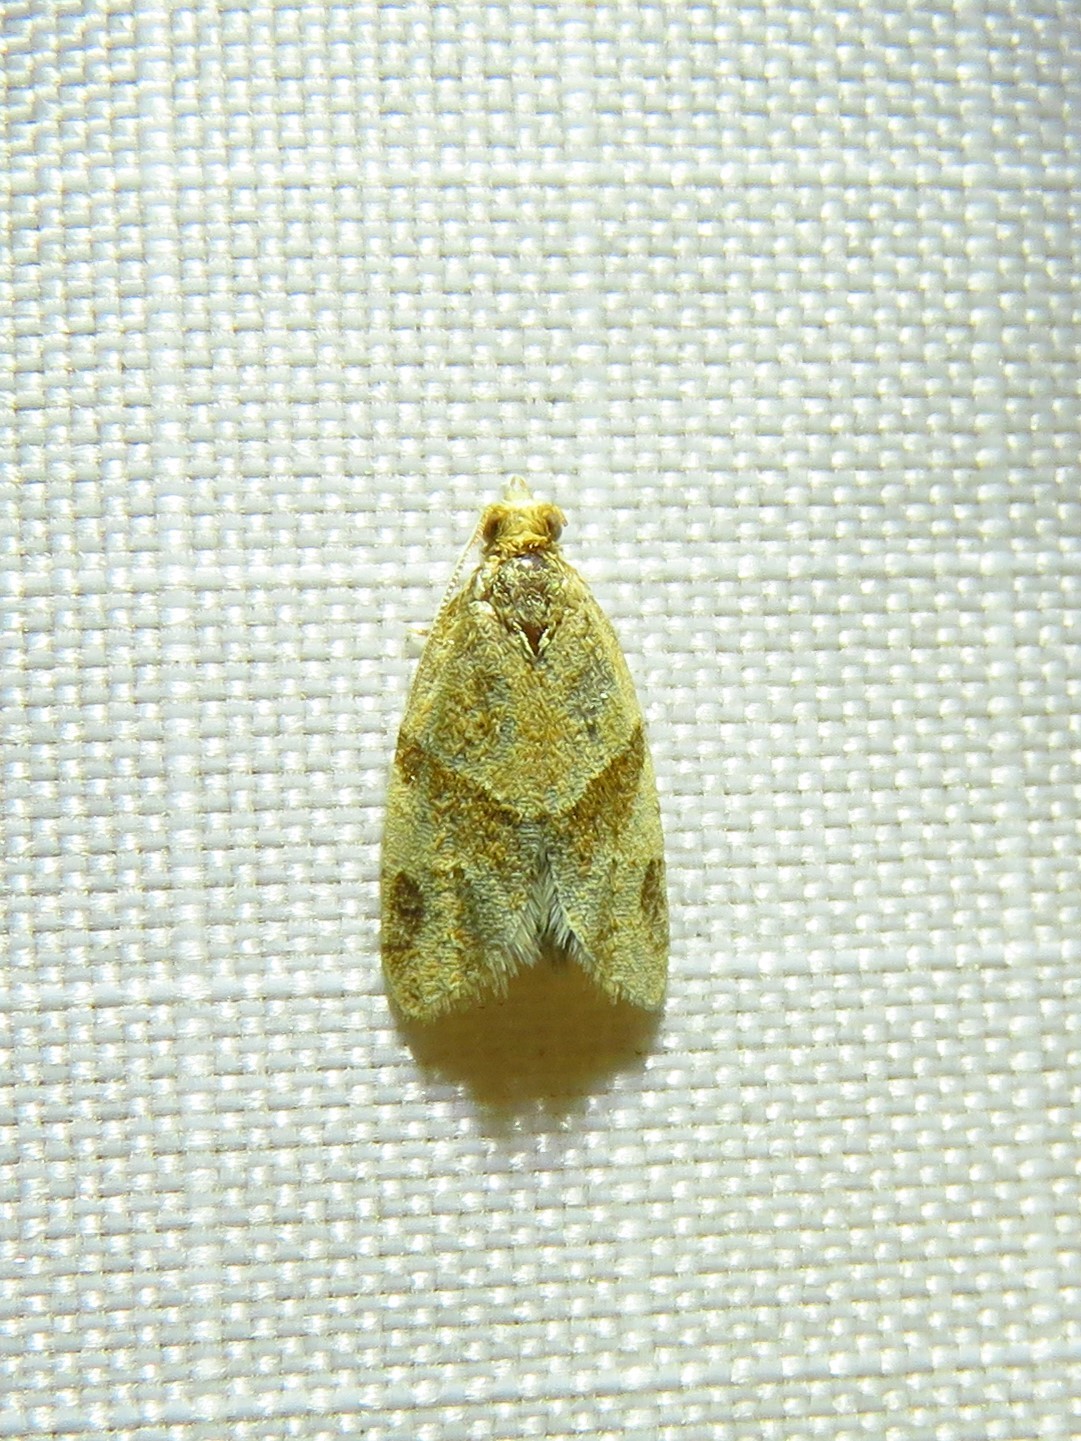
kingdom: Animalia
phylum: Arthropoda
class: Insecta
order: Lepidoptera
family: Tortricidae
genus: Clepsis
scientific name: Clepsis peritana
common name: Garden tortrix
